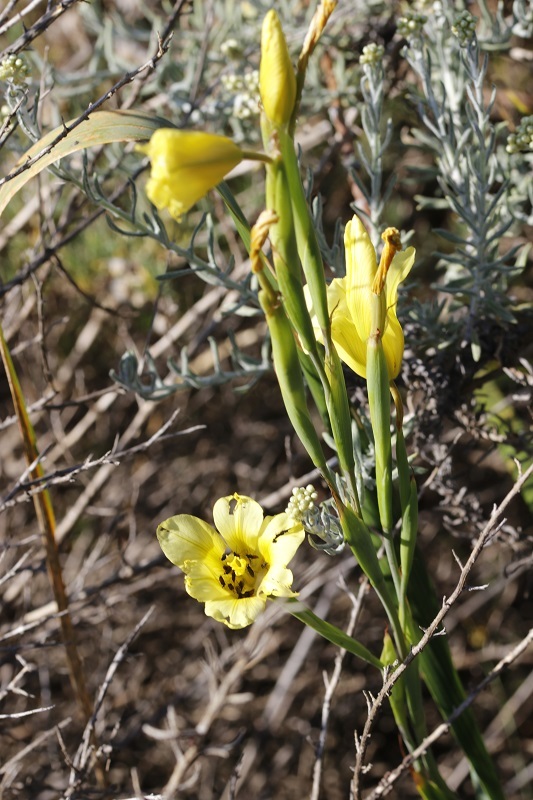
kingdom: Plantae
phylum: Tracheophyta
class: Liliopsida
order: Asparagales
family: Iridaceae
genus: Moraea
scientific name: Moraea ochroleuca
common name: Red tulp
